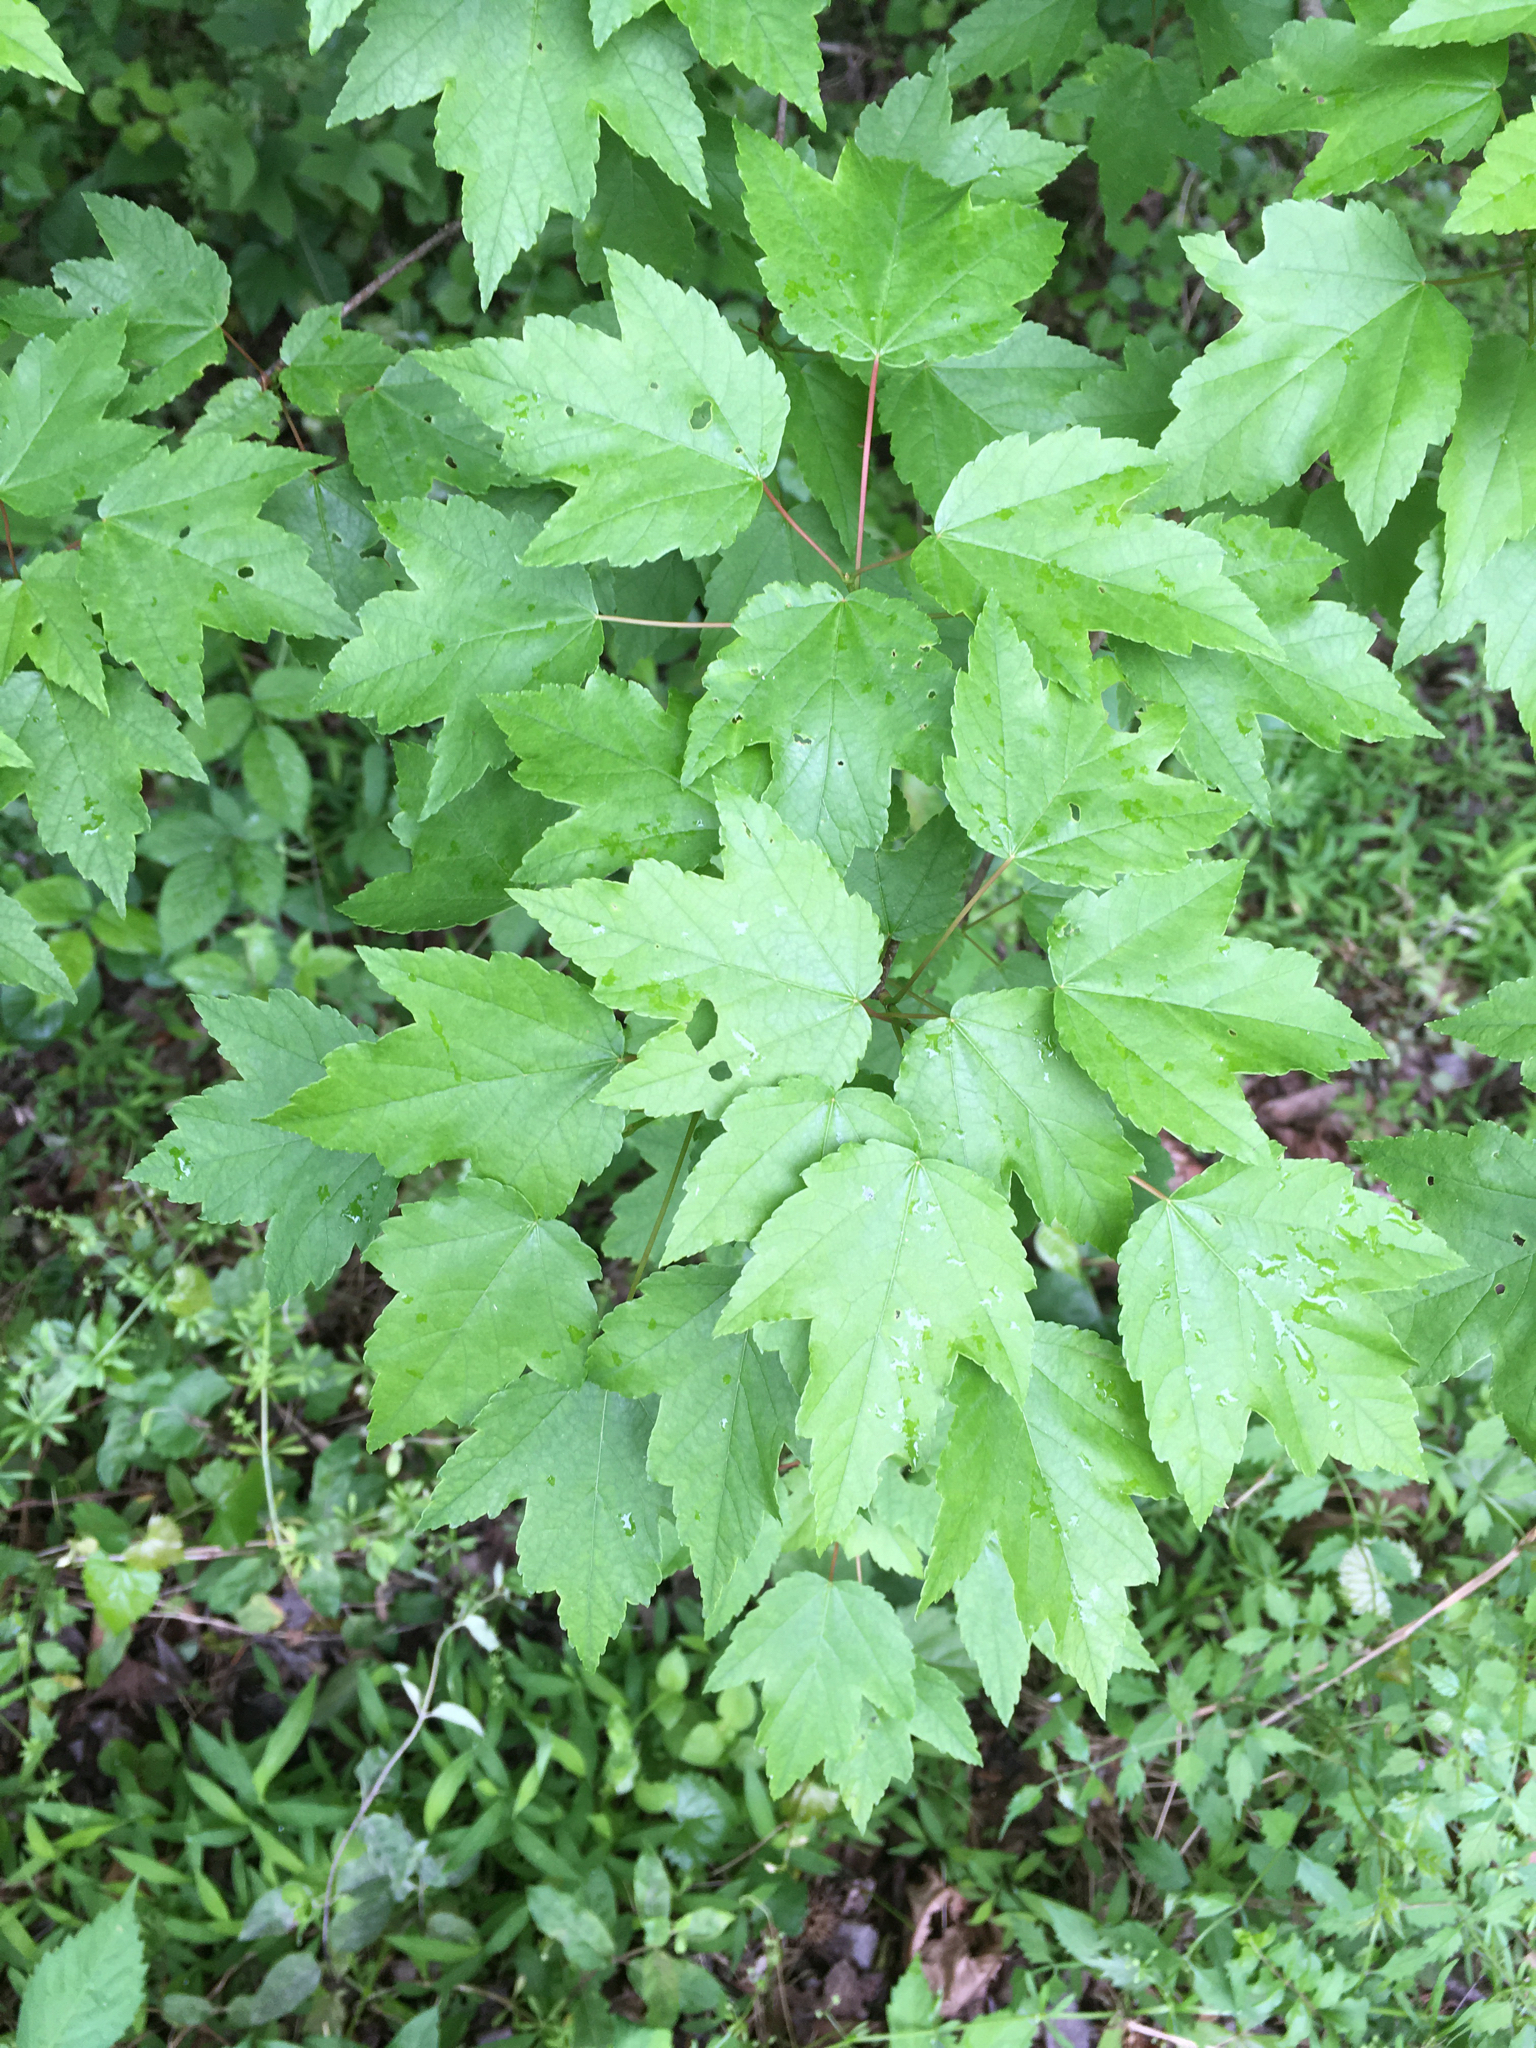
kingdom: Plantae
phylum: Tracheophyta
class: Magnoliopsida
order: Sapindales
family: Sapindaceae
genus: Acer
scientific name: Acer rubrum
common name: Red maple
